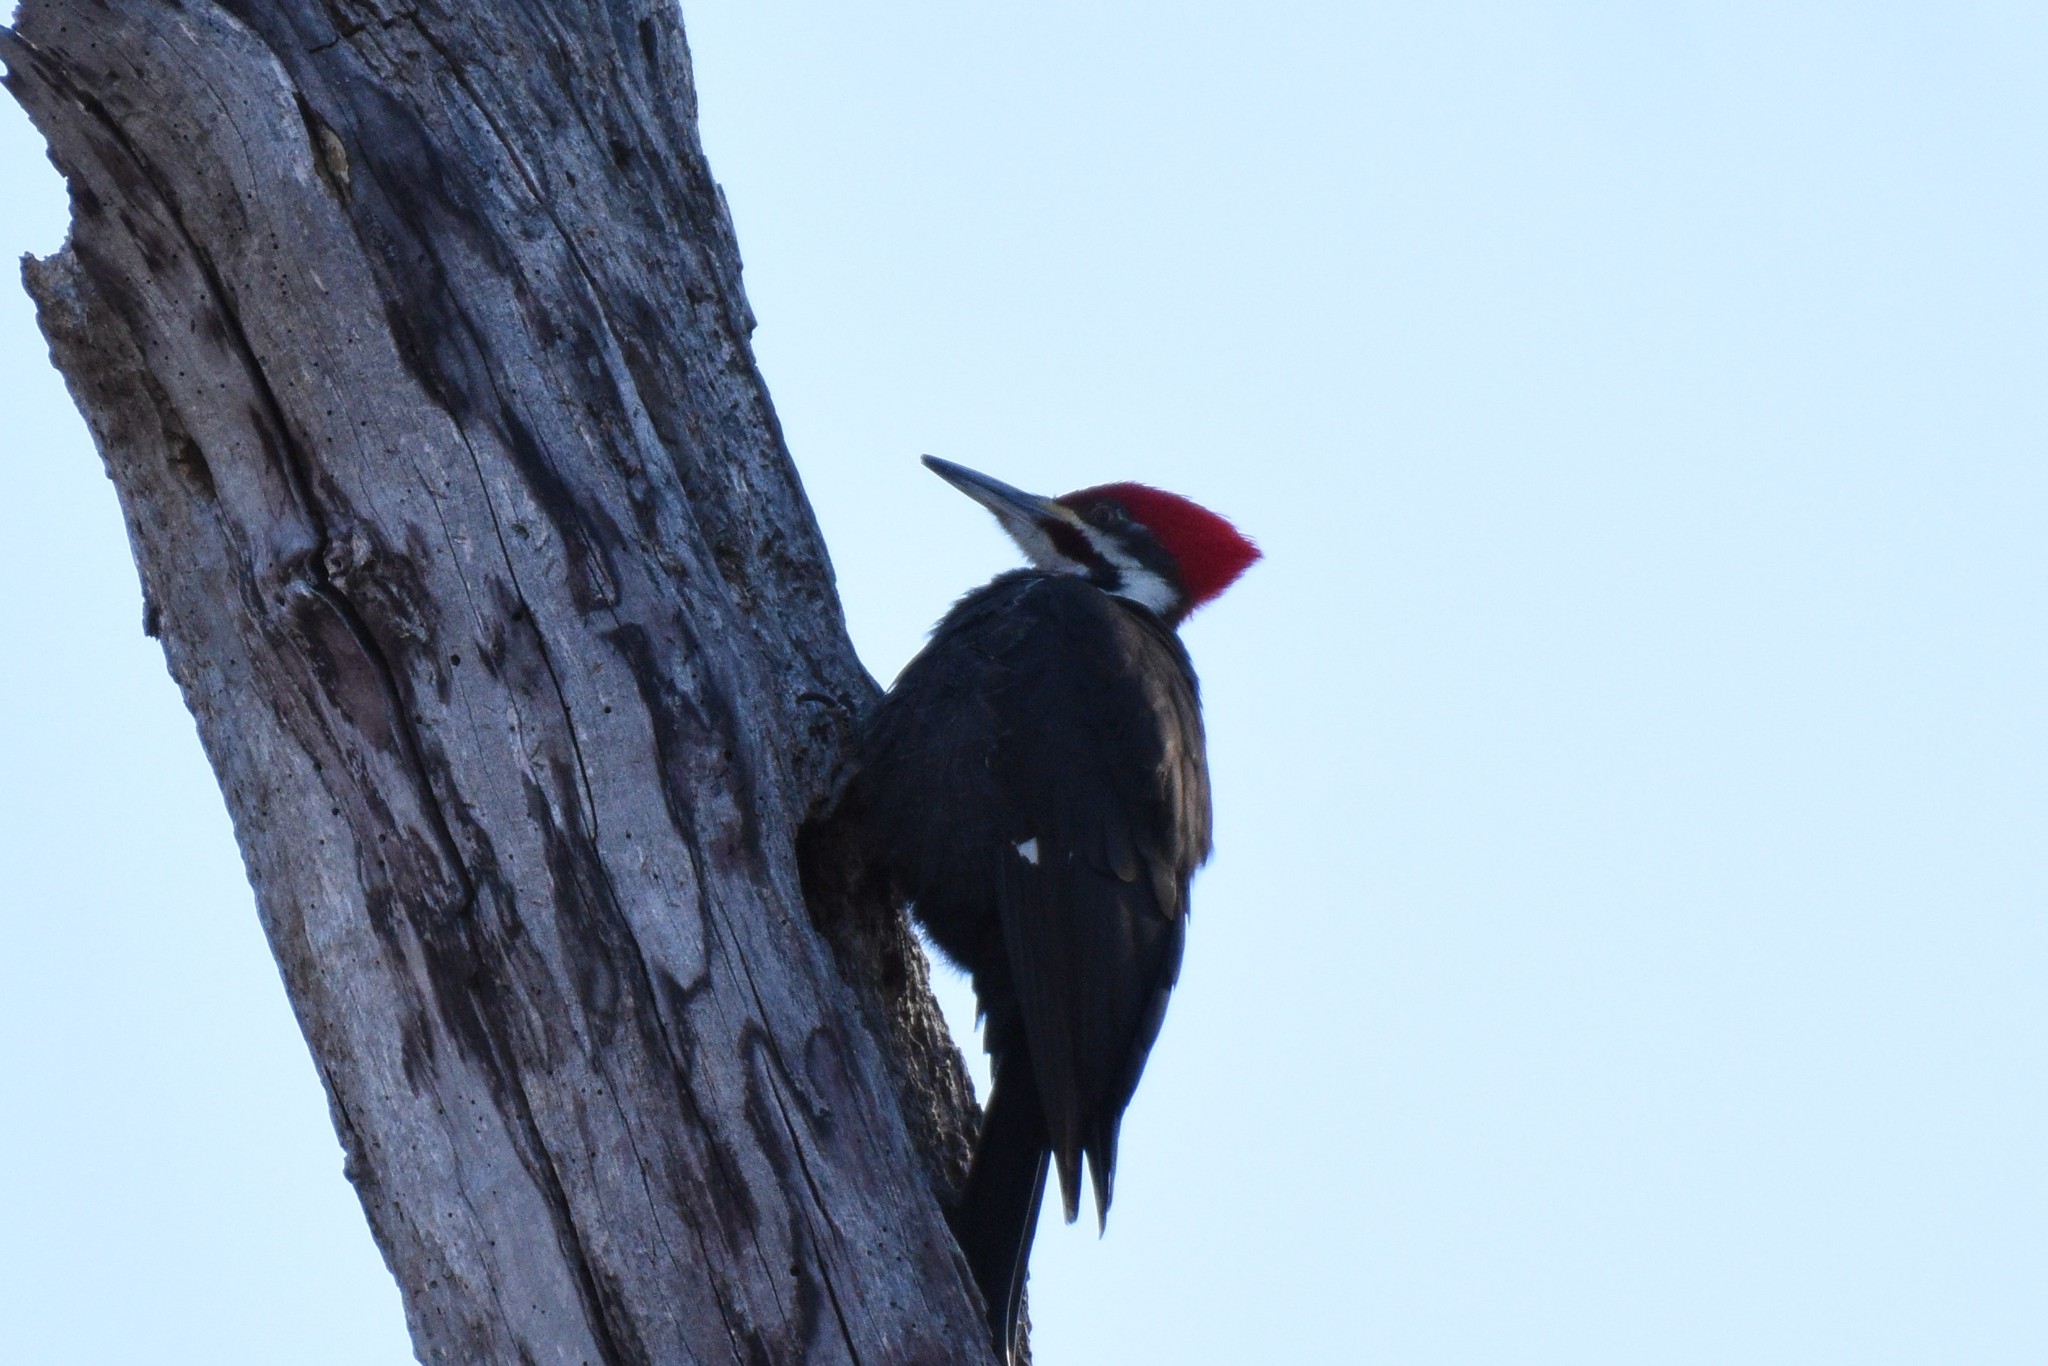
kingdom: Animalia
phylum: Chordata
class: Aves
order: Piciformes
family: Picidae
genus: Dryocopus
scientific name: Dryocopus pileatus
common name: Pileated woodpecker
